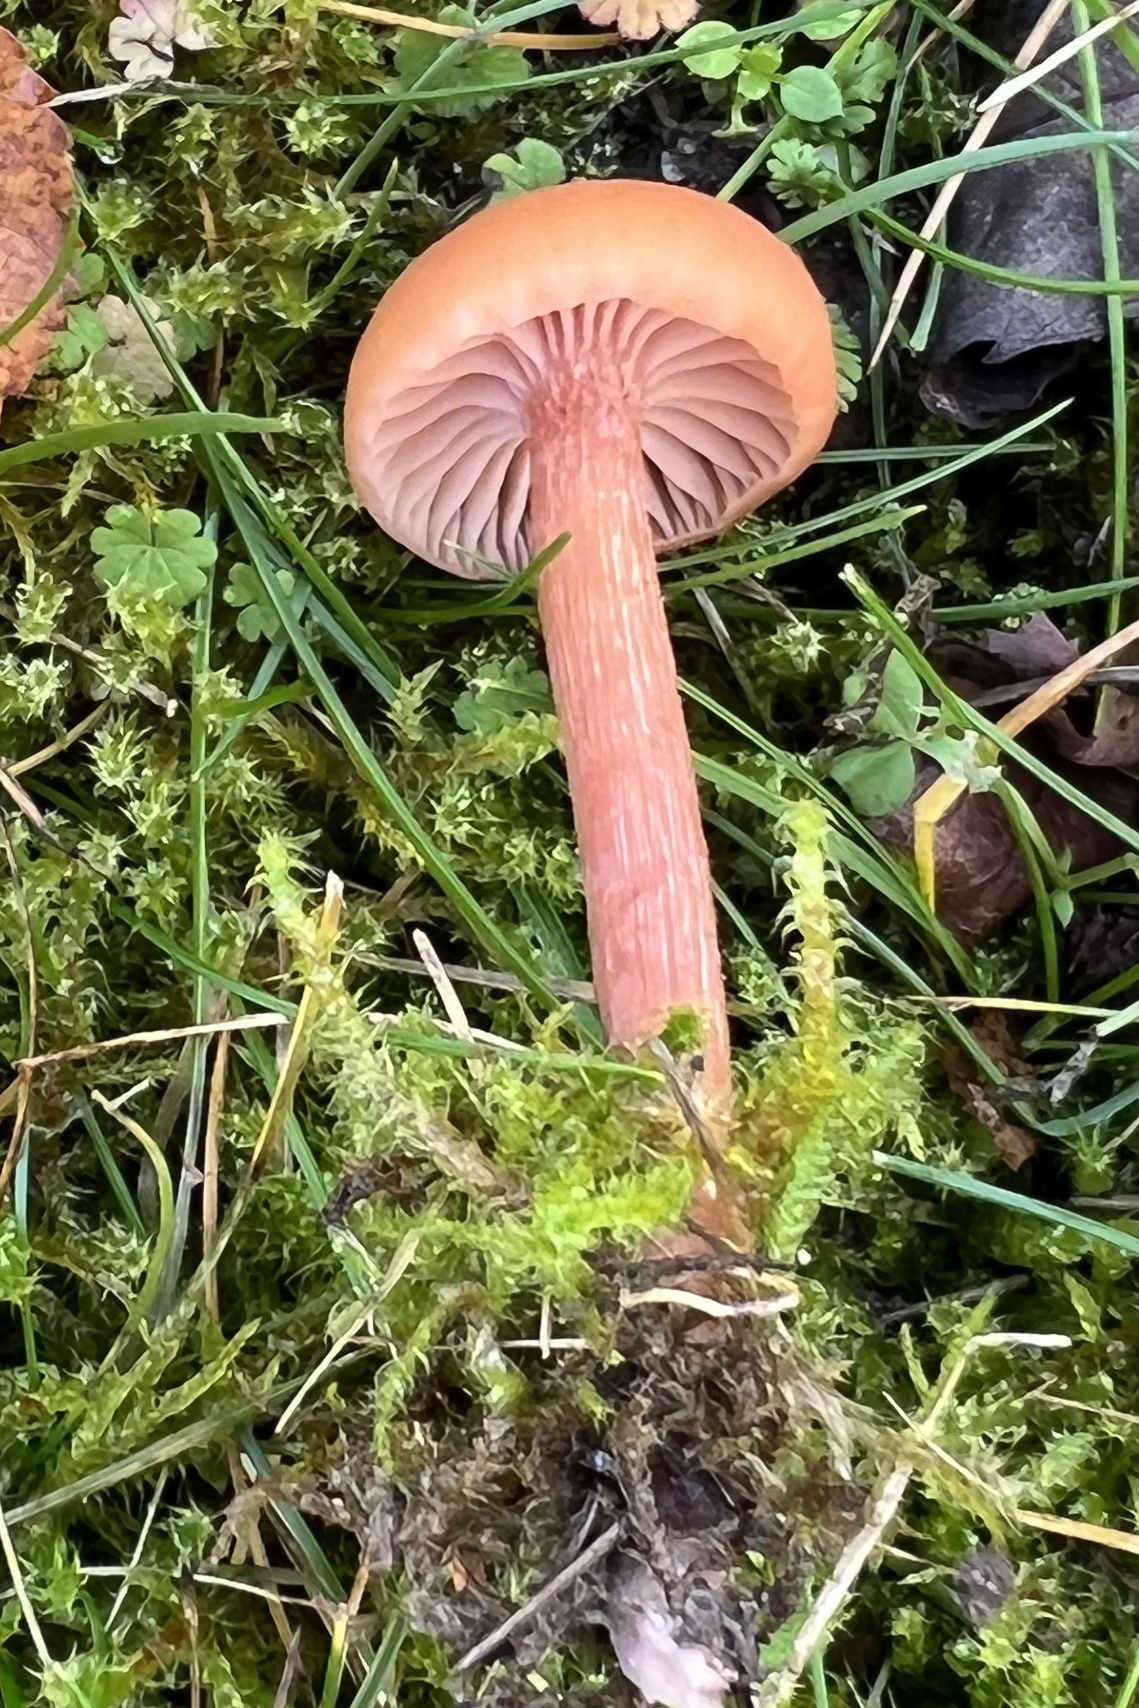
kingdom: Fungi
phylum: Basidiomycota
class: Agaricomycetes
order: Agaricales
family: Hydnangiaceae
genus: Laccaria
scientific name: Laccaria laccata
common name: Deceiver
